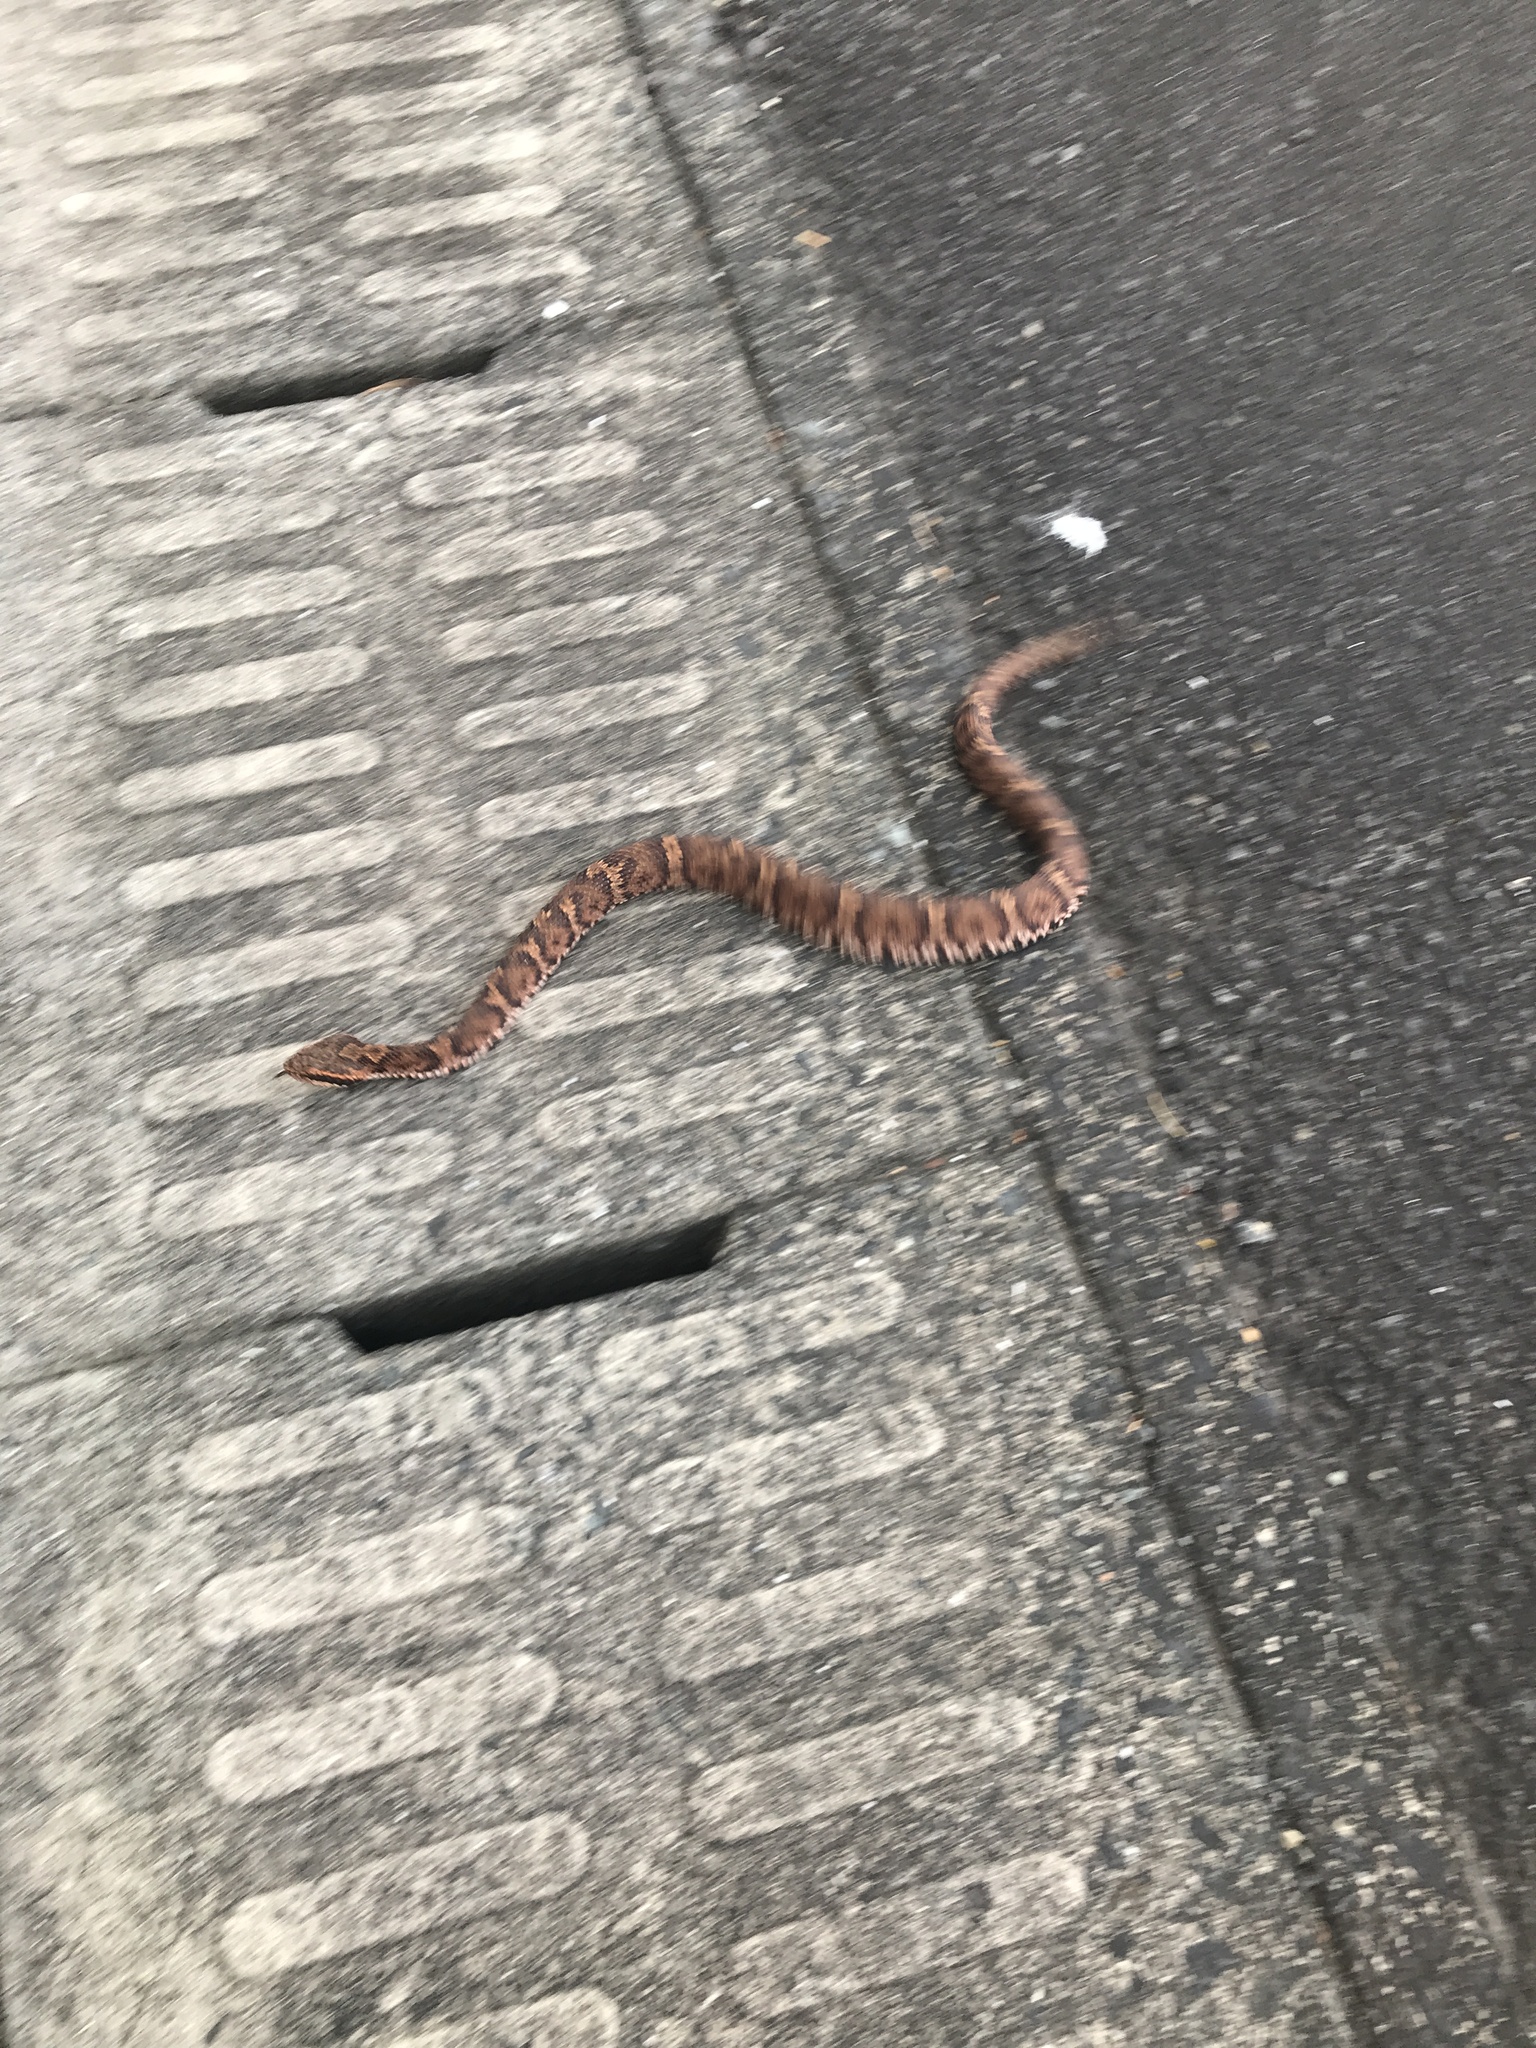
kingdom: Animalia
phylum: Chordata
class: Squamata
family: Viperidae
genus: Gloydius
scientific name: Gloydius blomhoffii
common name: Mamushi
